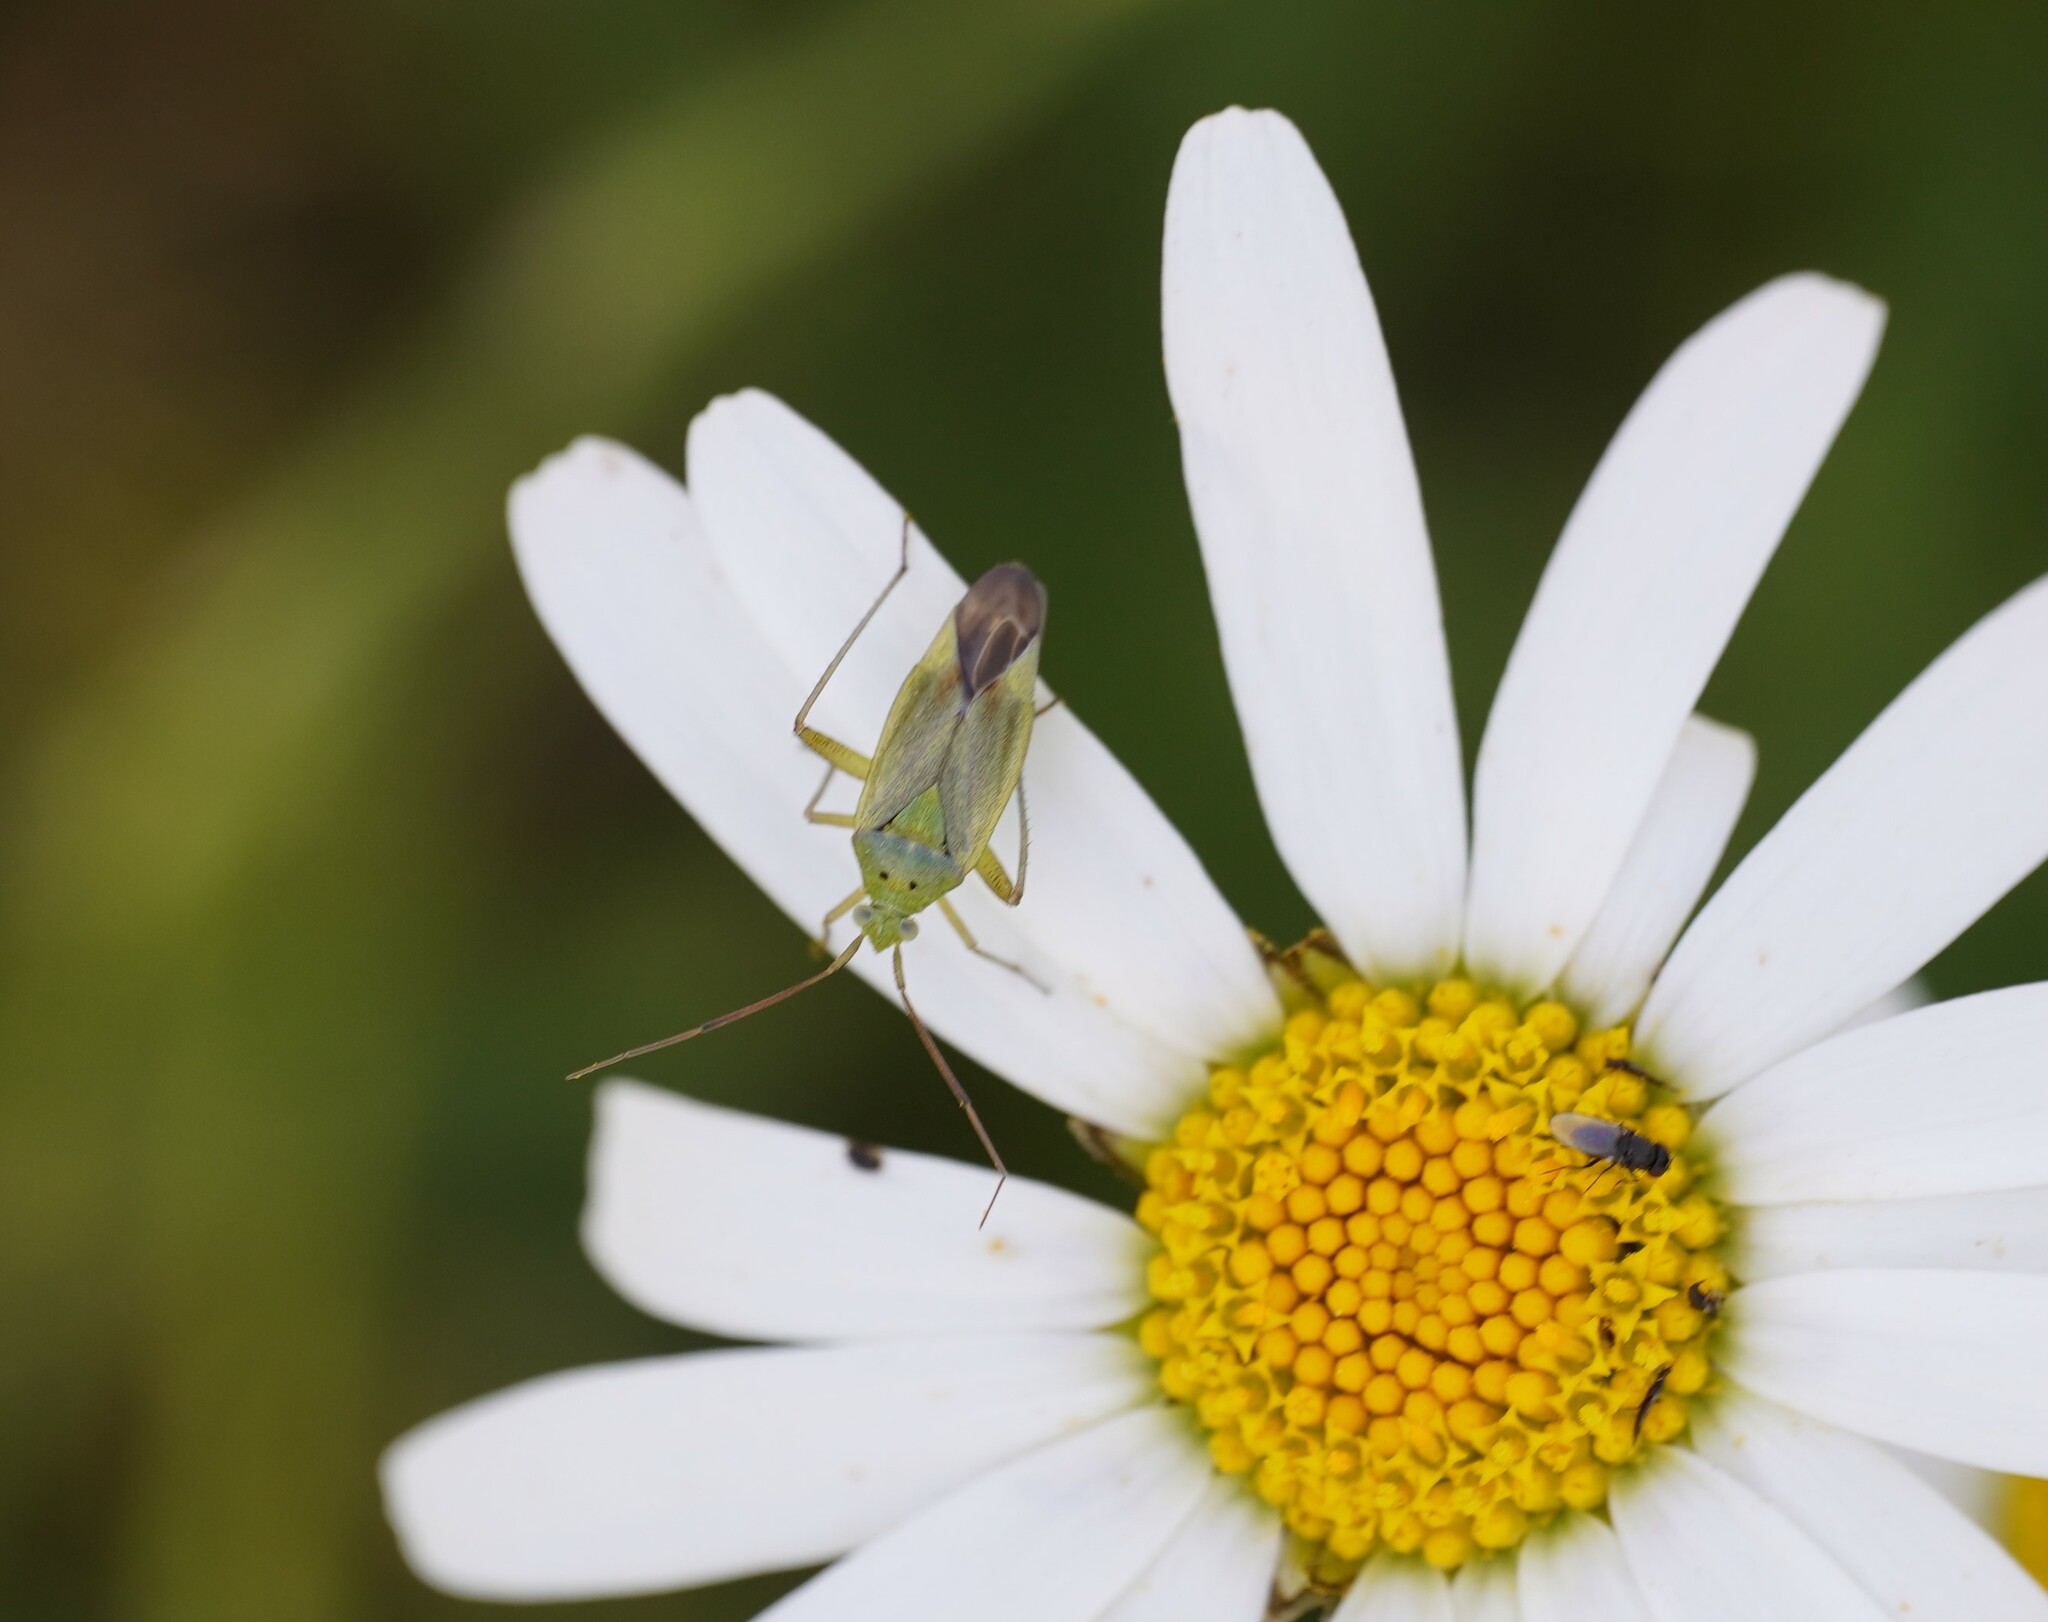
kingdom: Animalia
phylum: Arthropoda
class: Insecta
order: Hemiptera
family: Miridae
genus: Closterotomus
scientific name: Closterotomus norvegicus
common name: Plant bug
